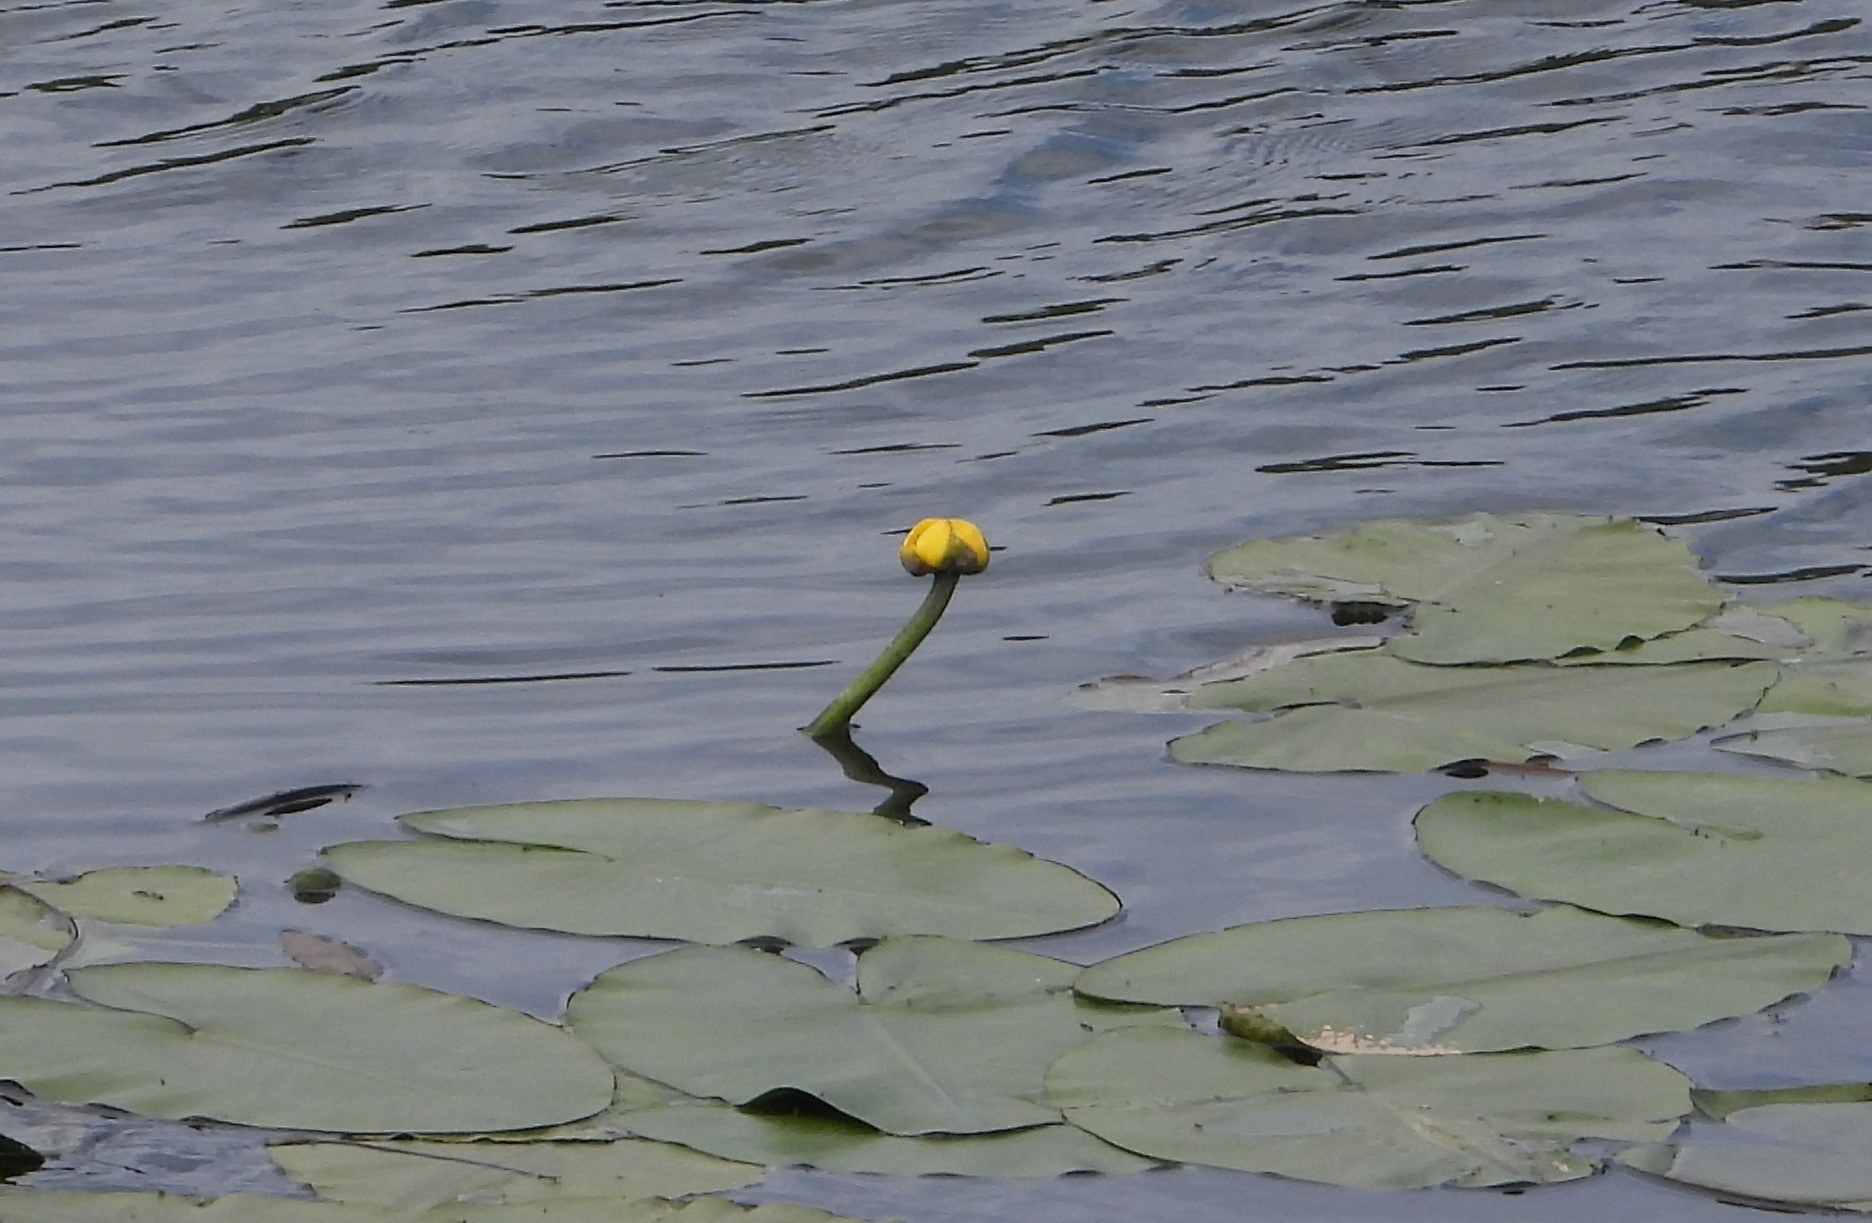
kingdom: Plantae
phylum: Tracheophyta
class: Magnoliopsida
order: Nymphaeales
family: Nymphaeaceae
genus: Nuphar
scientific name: Nuphar lutea
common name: Yellow water-lily
